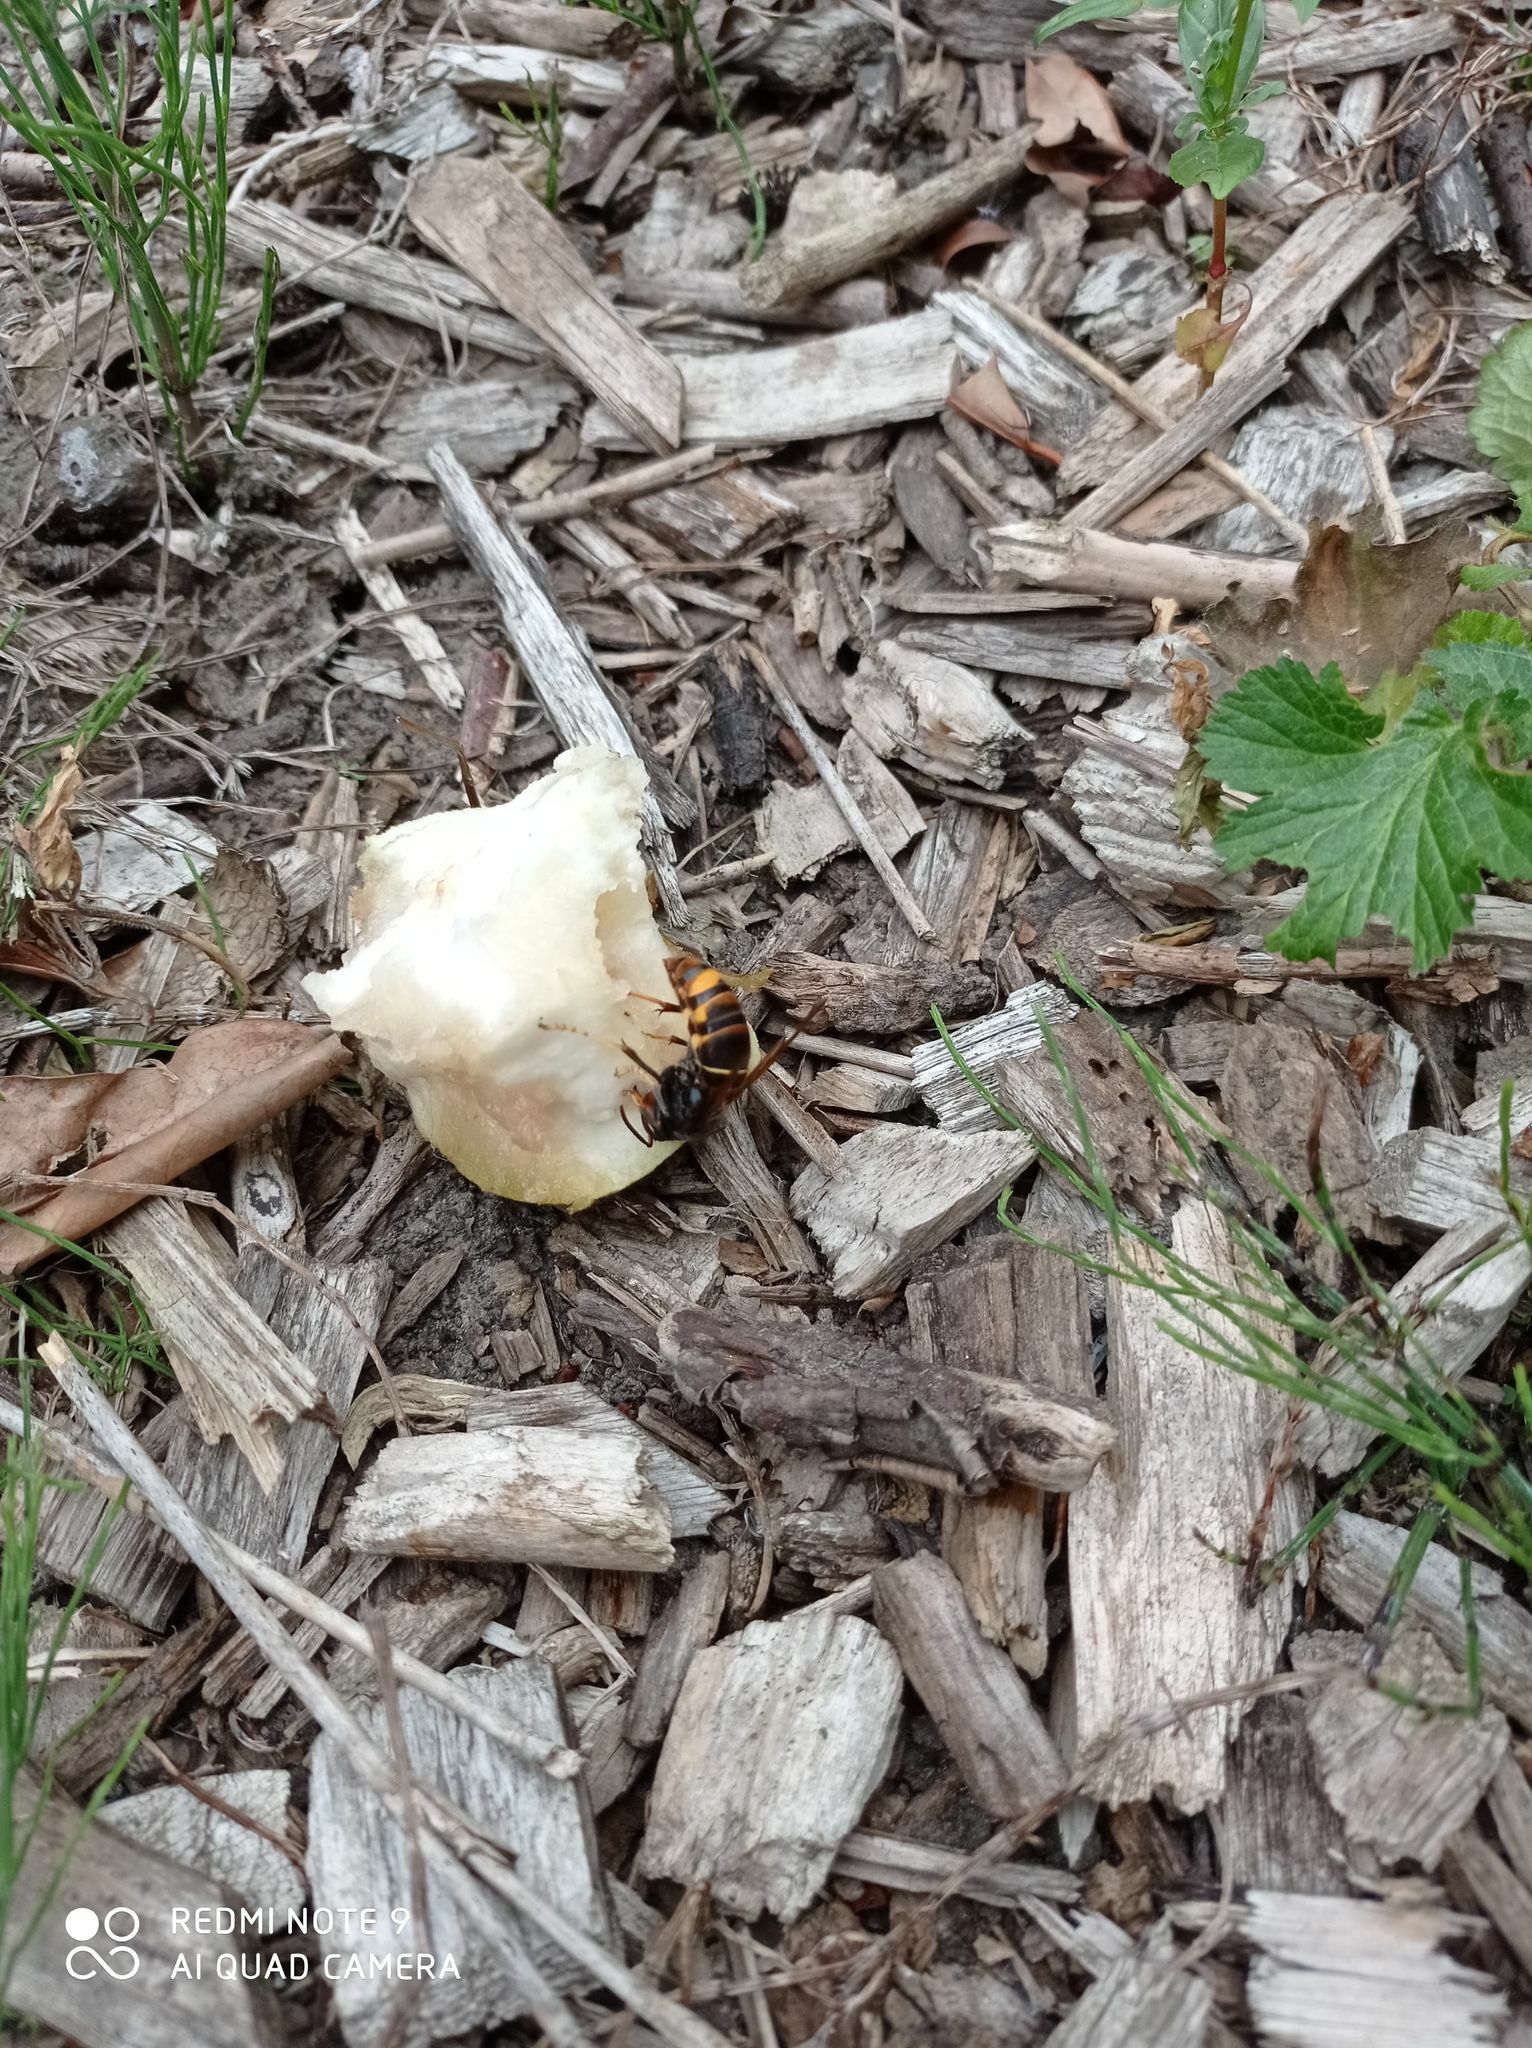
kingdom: Animalia
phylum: Arthropoda
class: Insecta
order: Hymenoptera
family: Vespidae
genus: Vespa
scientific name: Vespa velutina
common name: Asian hornet
